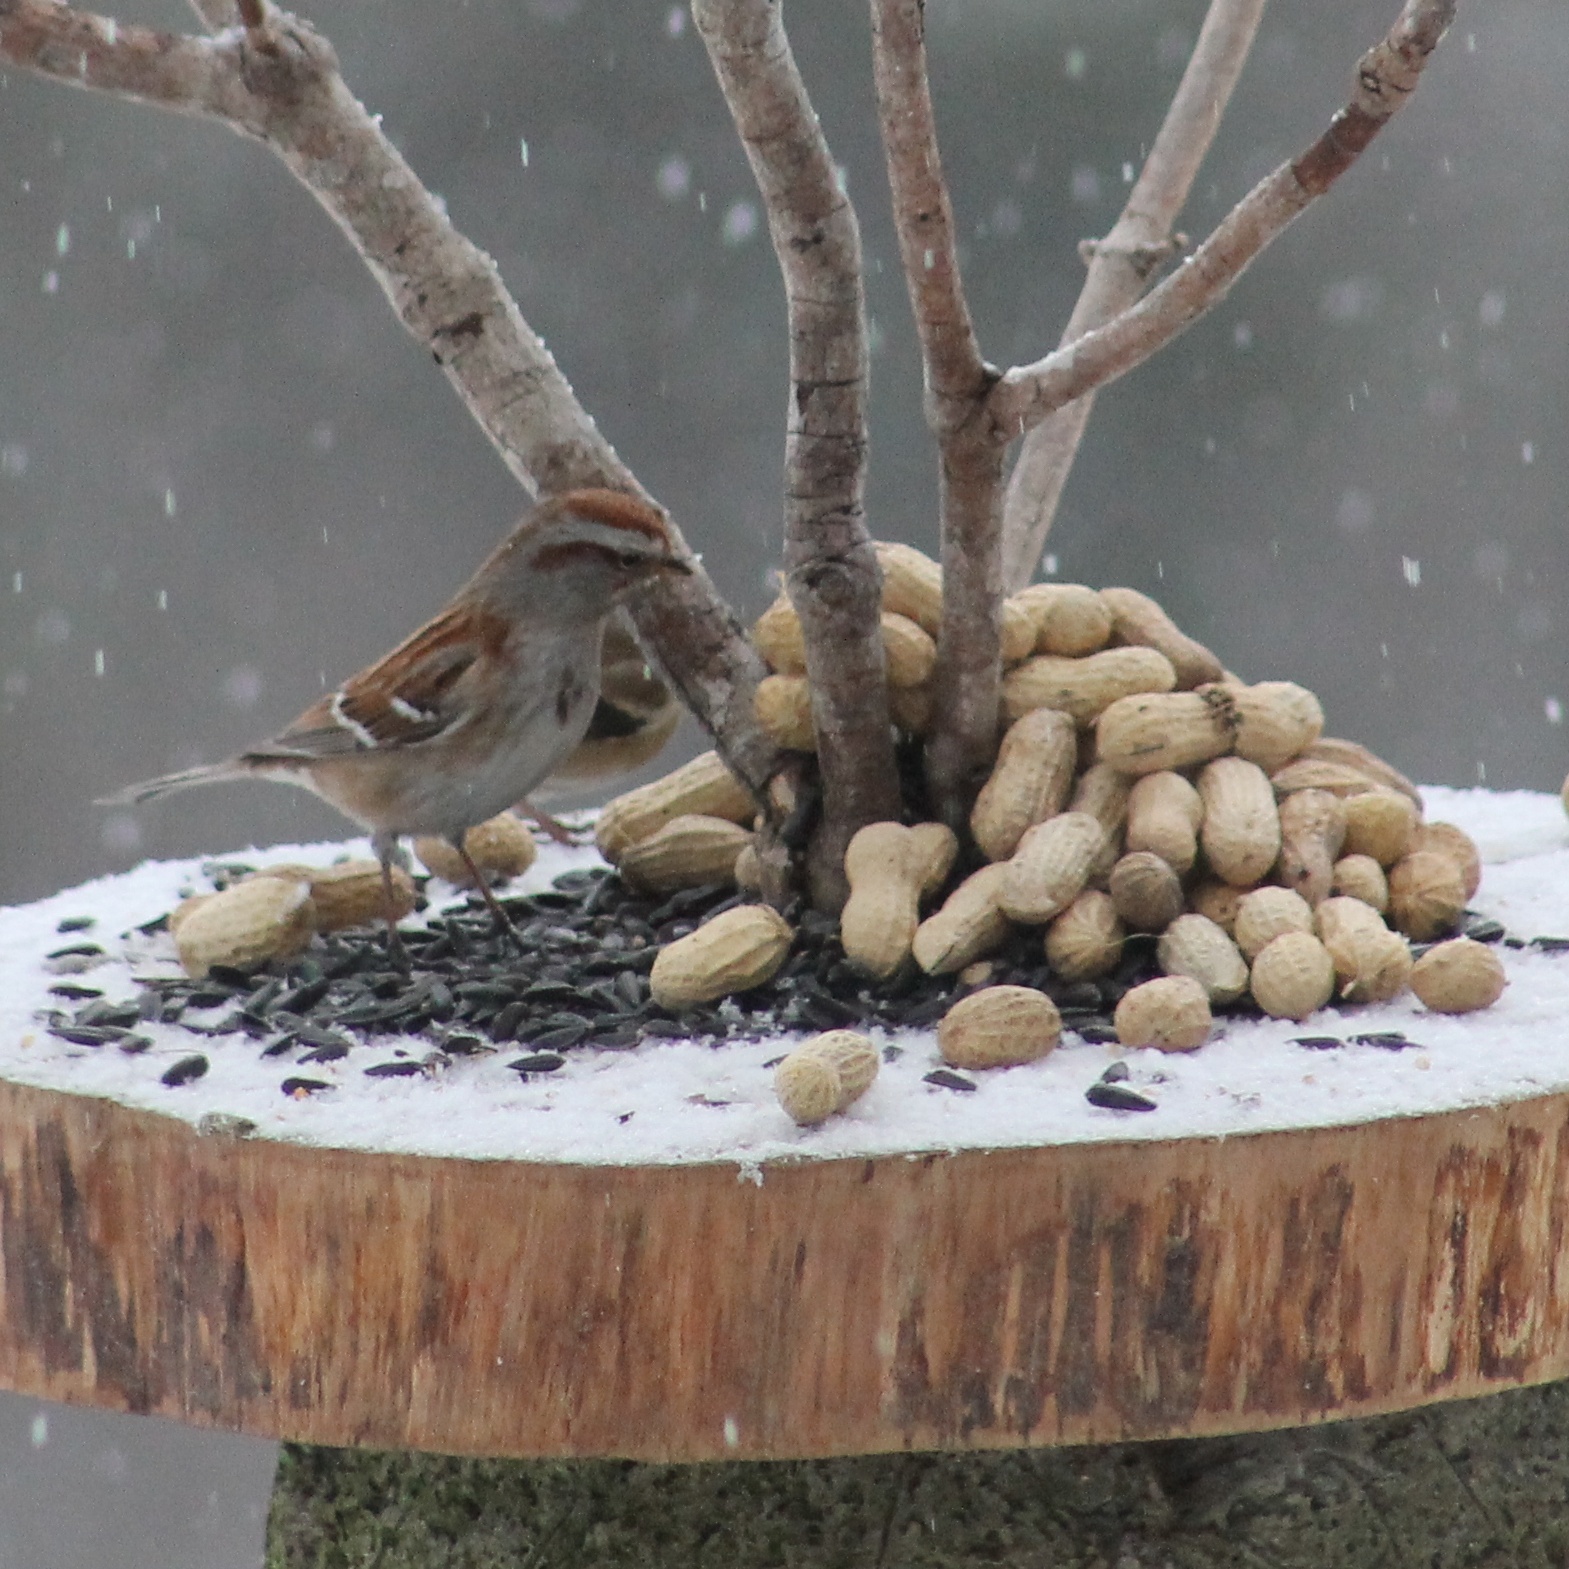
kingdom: Animalia
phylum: Chordata
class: Aves
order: Passeriformes
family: Passerellidae
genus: Spizelloides
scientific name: Spizelloides arborea
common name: American tree sparrow
